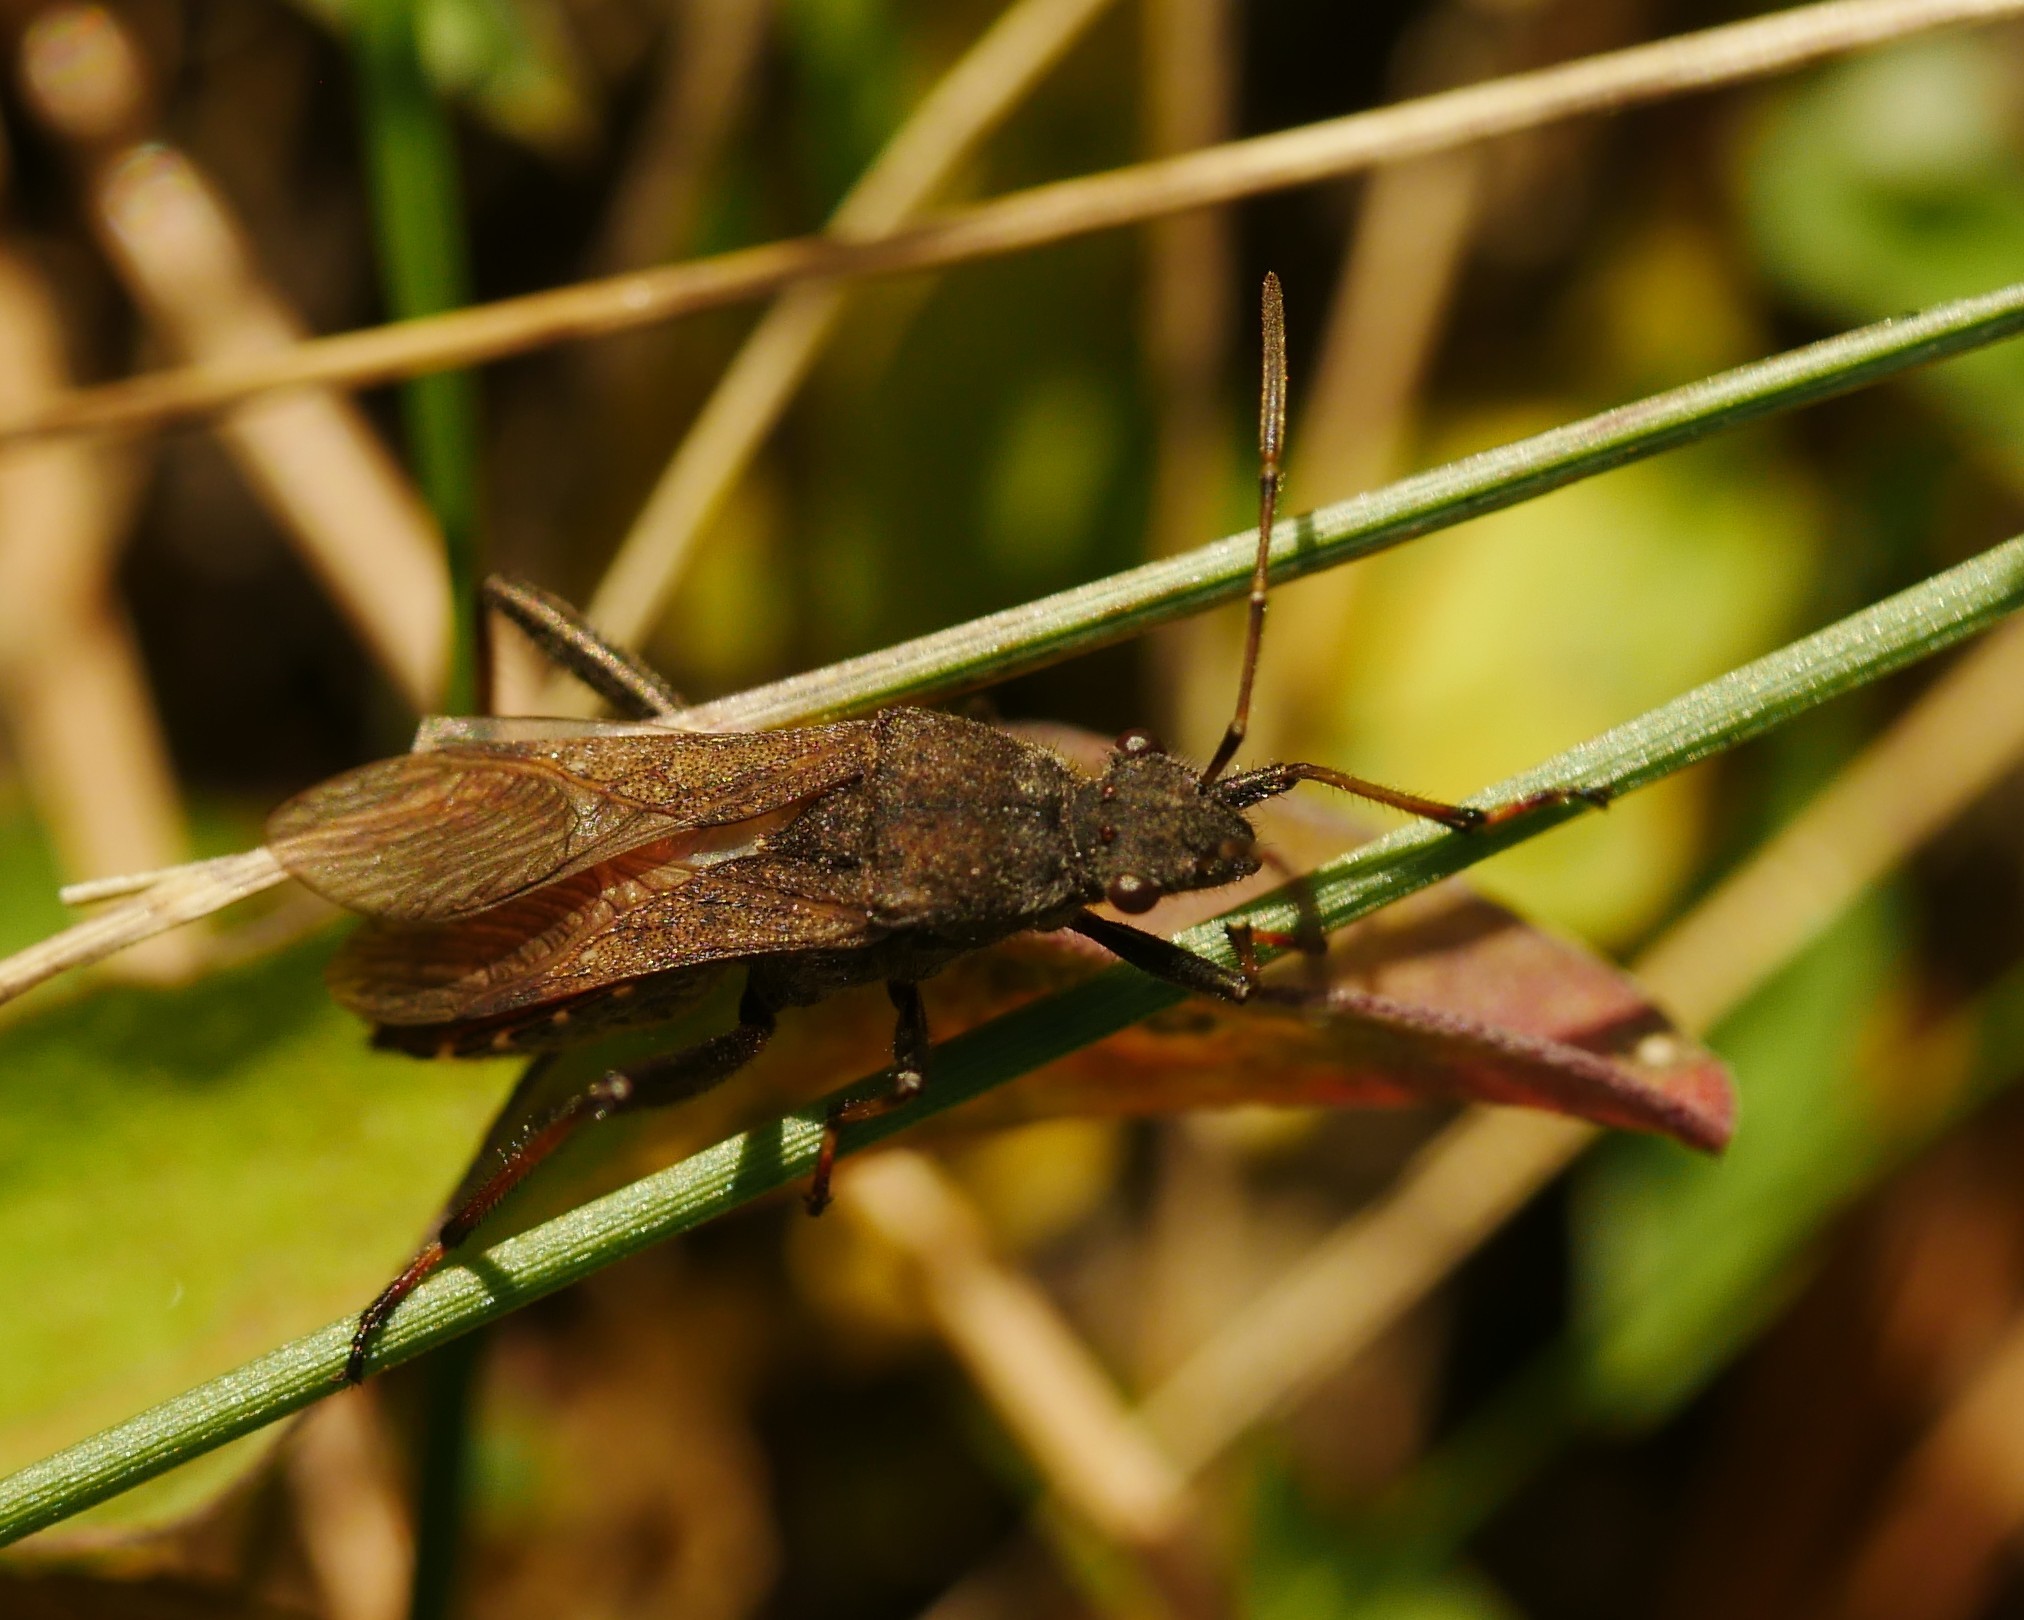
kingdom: Animalia
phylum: Arthropoda
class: Insecta
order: Hemiptera
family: Alydidae
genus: Alydus
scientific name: Alydus calcaratus
